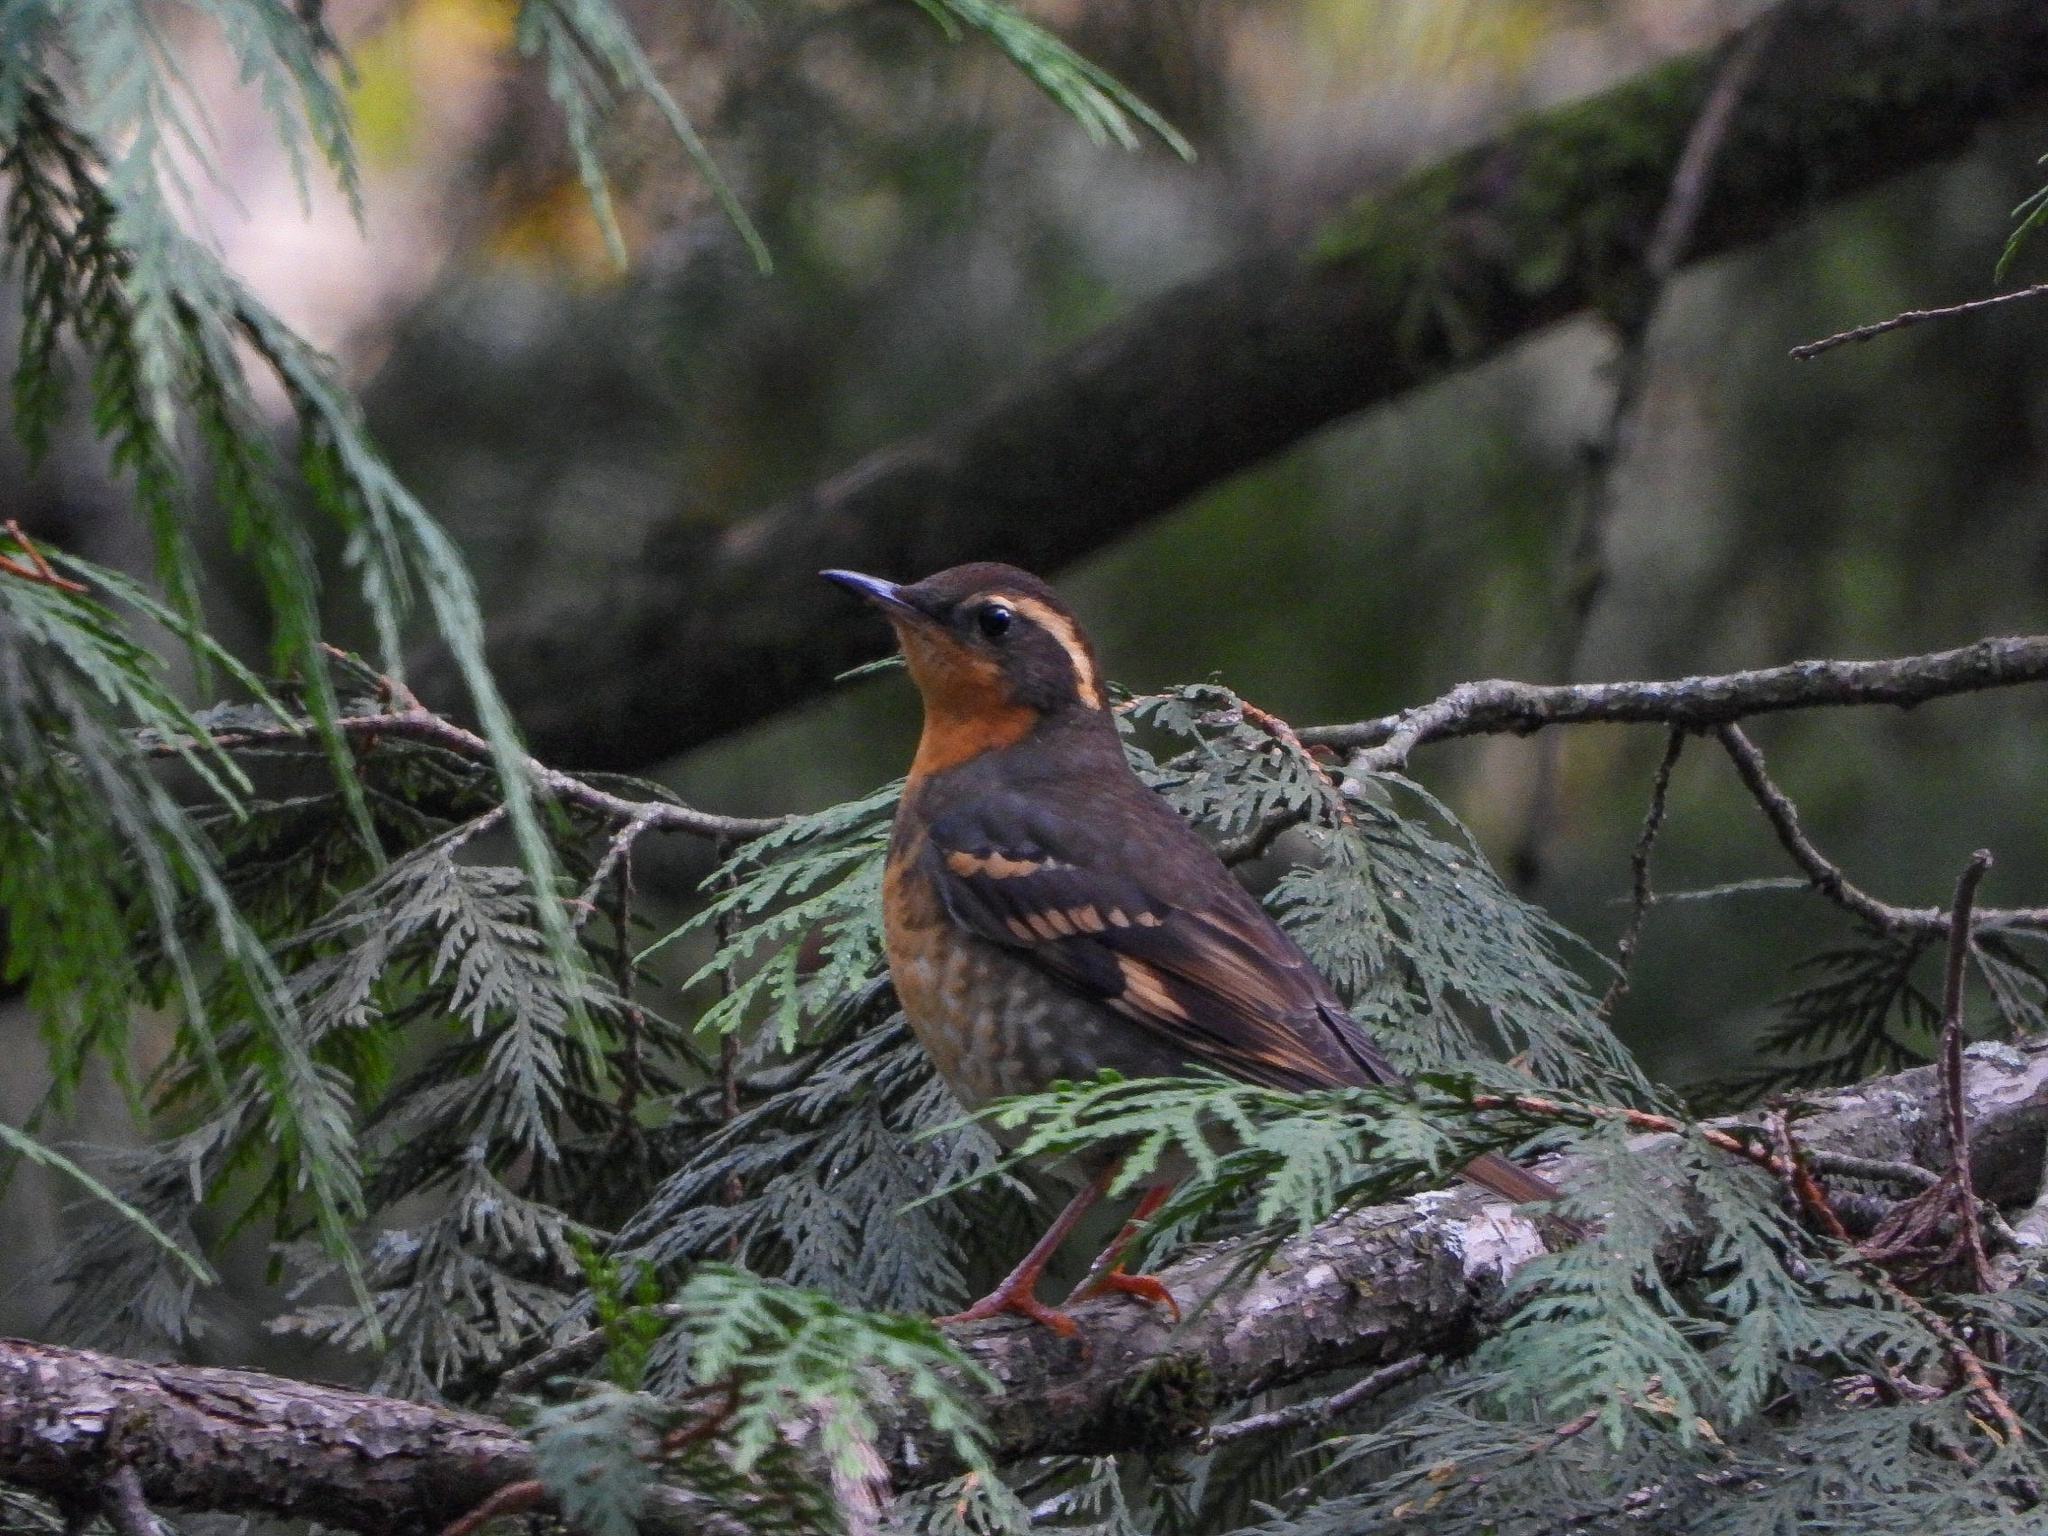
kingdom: Animalia
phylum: Chordata
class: Aves
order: Passeriformes
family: Turdidae
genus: Ixoreus
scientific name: Ixoreus naevius
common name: Varied thrush
